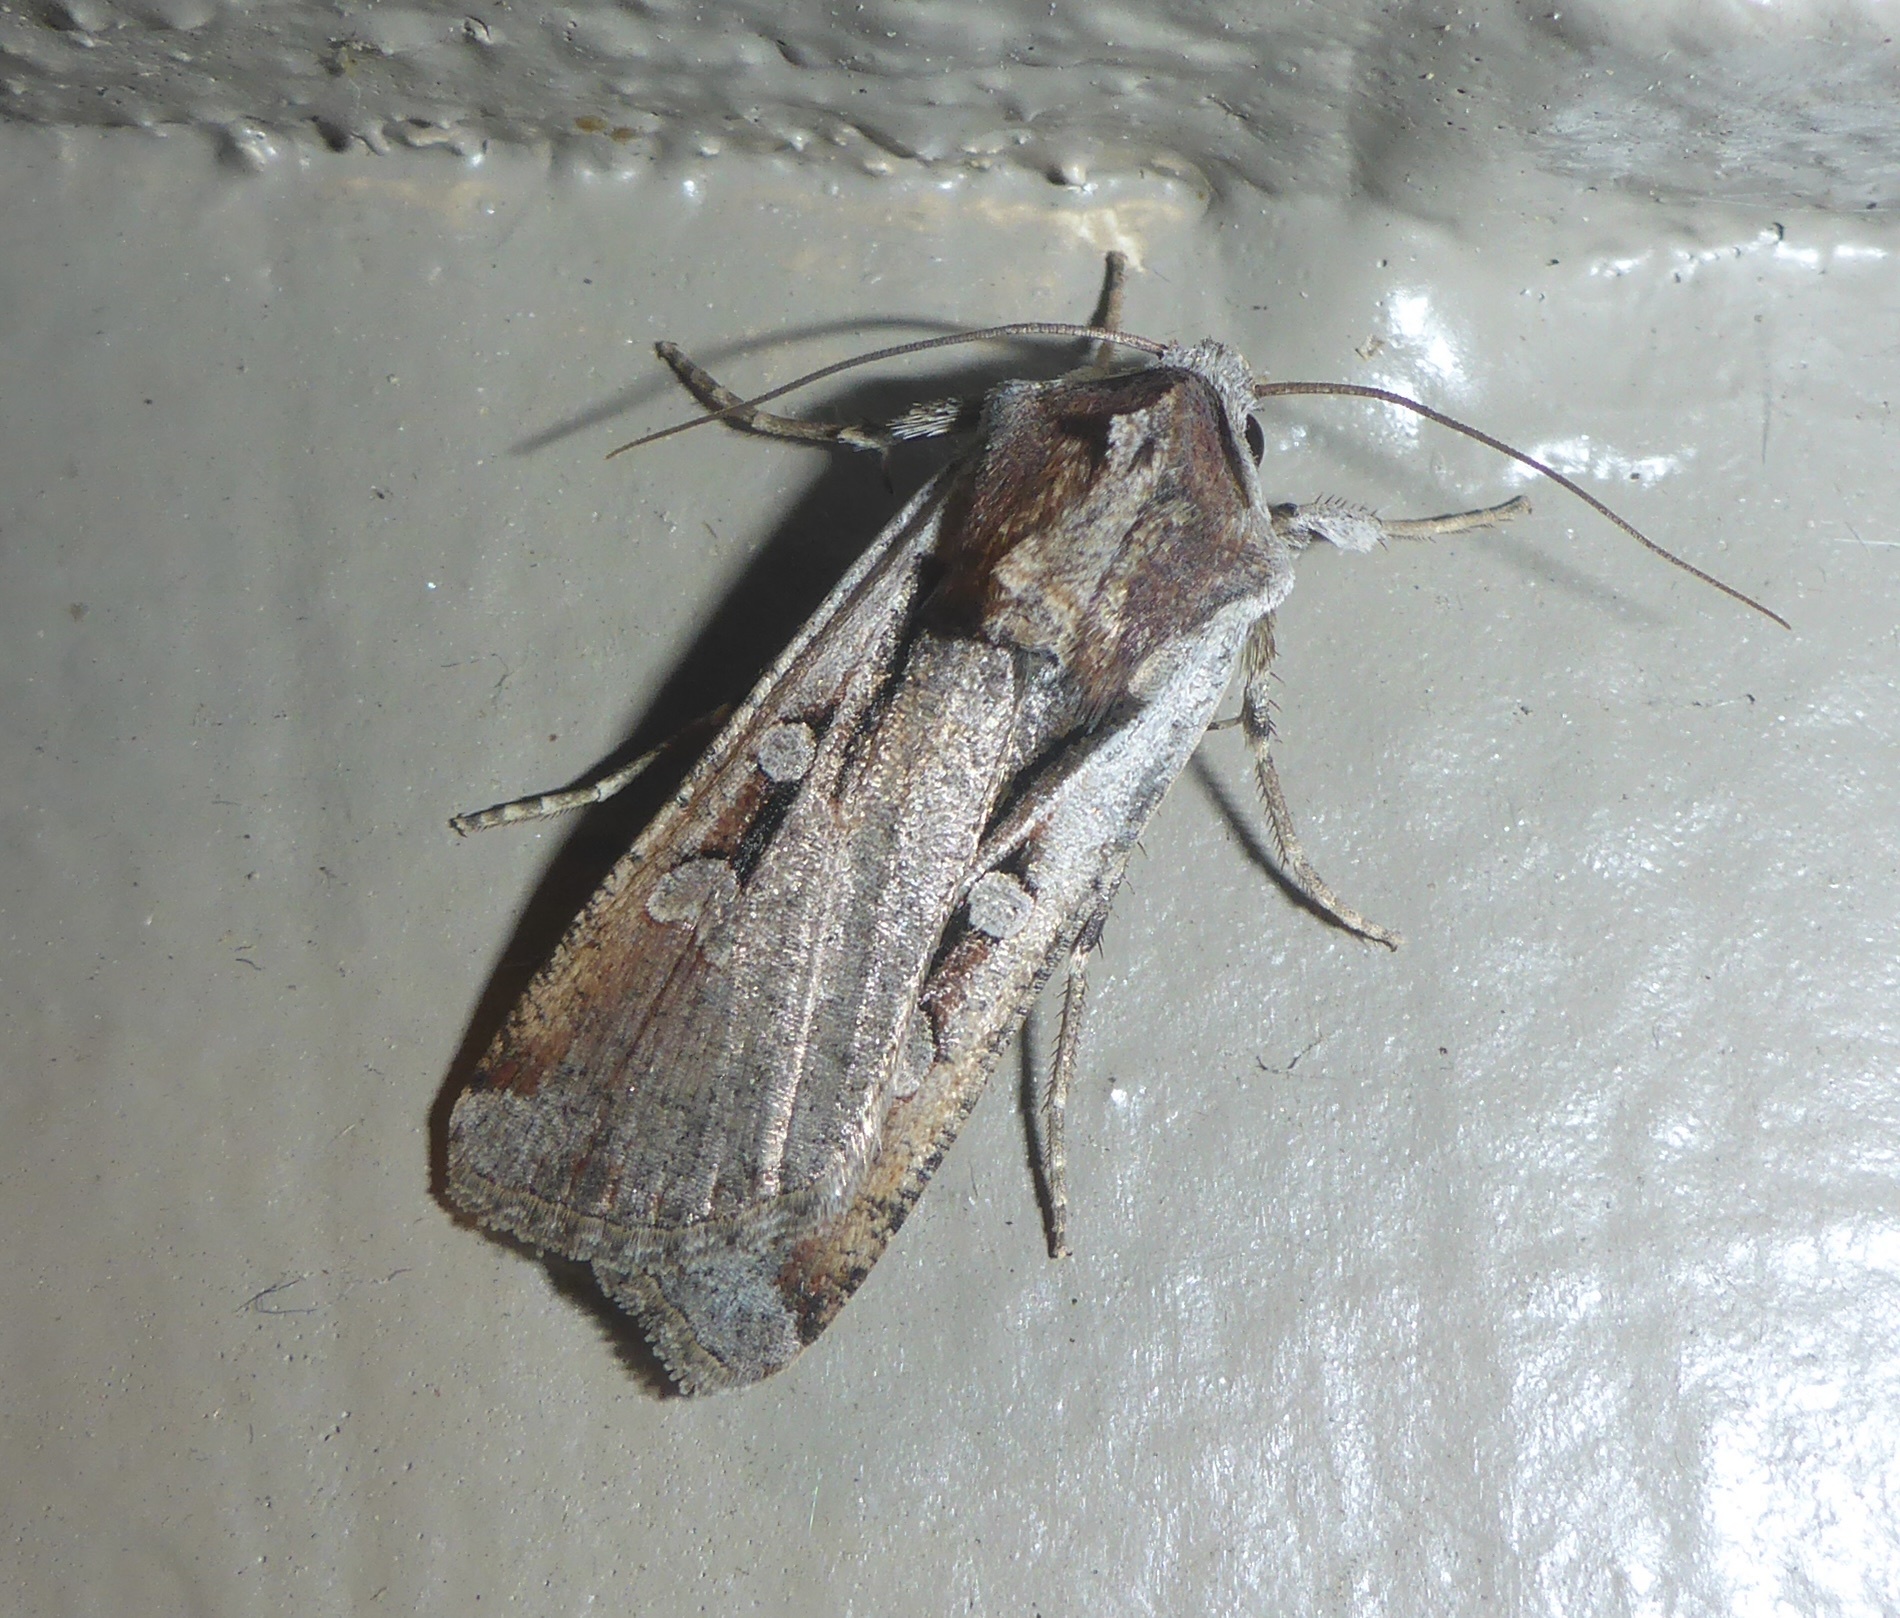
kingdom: Animalia
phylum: Arthropoda
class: Insecta
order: Lepidoptera
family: Noctuidae
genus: Hemieuxoa
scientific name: Hemieuxoa rudens
